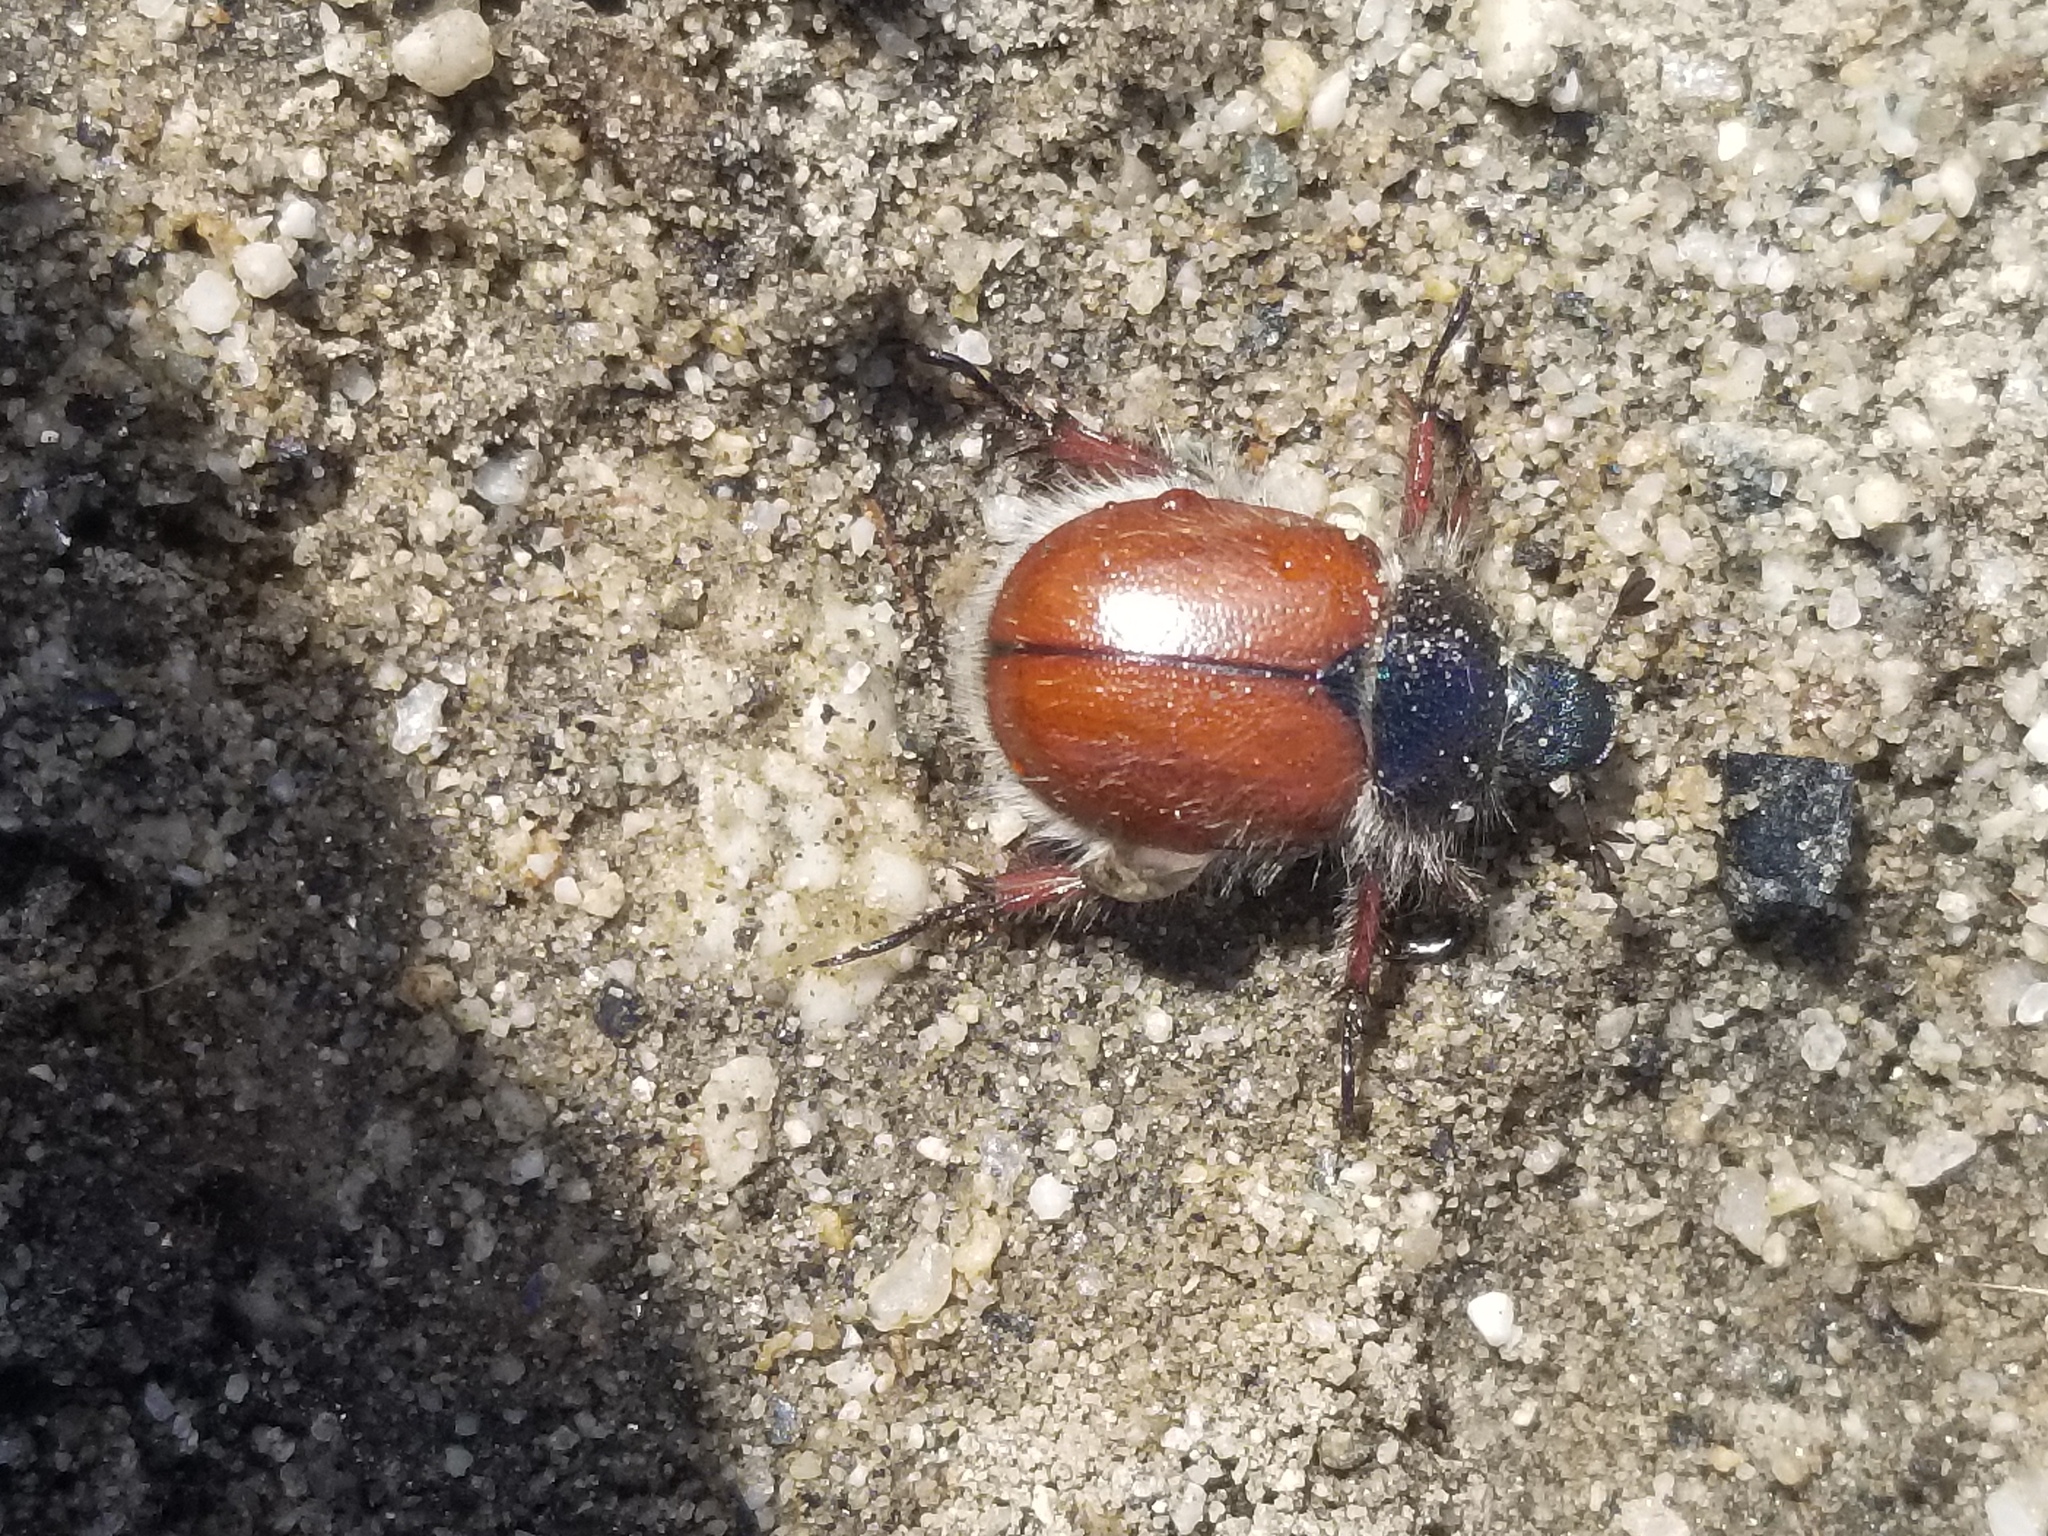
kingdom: Animalia
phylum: Arthropoda
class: Insecta
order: Coleoptera
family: Scarabaeidae
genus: Paracotalpa
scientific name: Paracotalpa ursina
